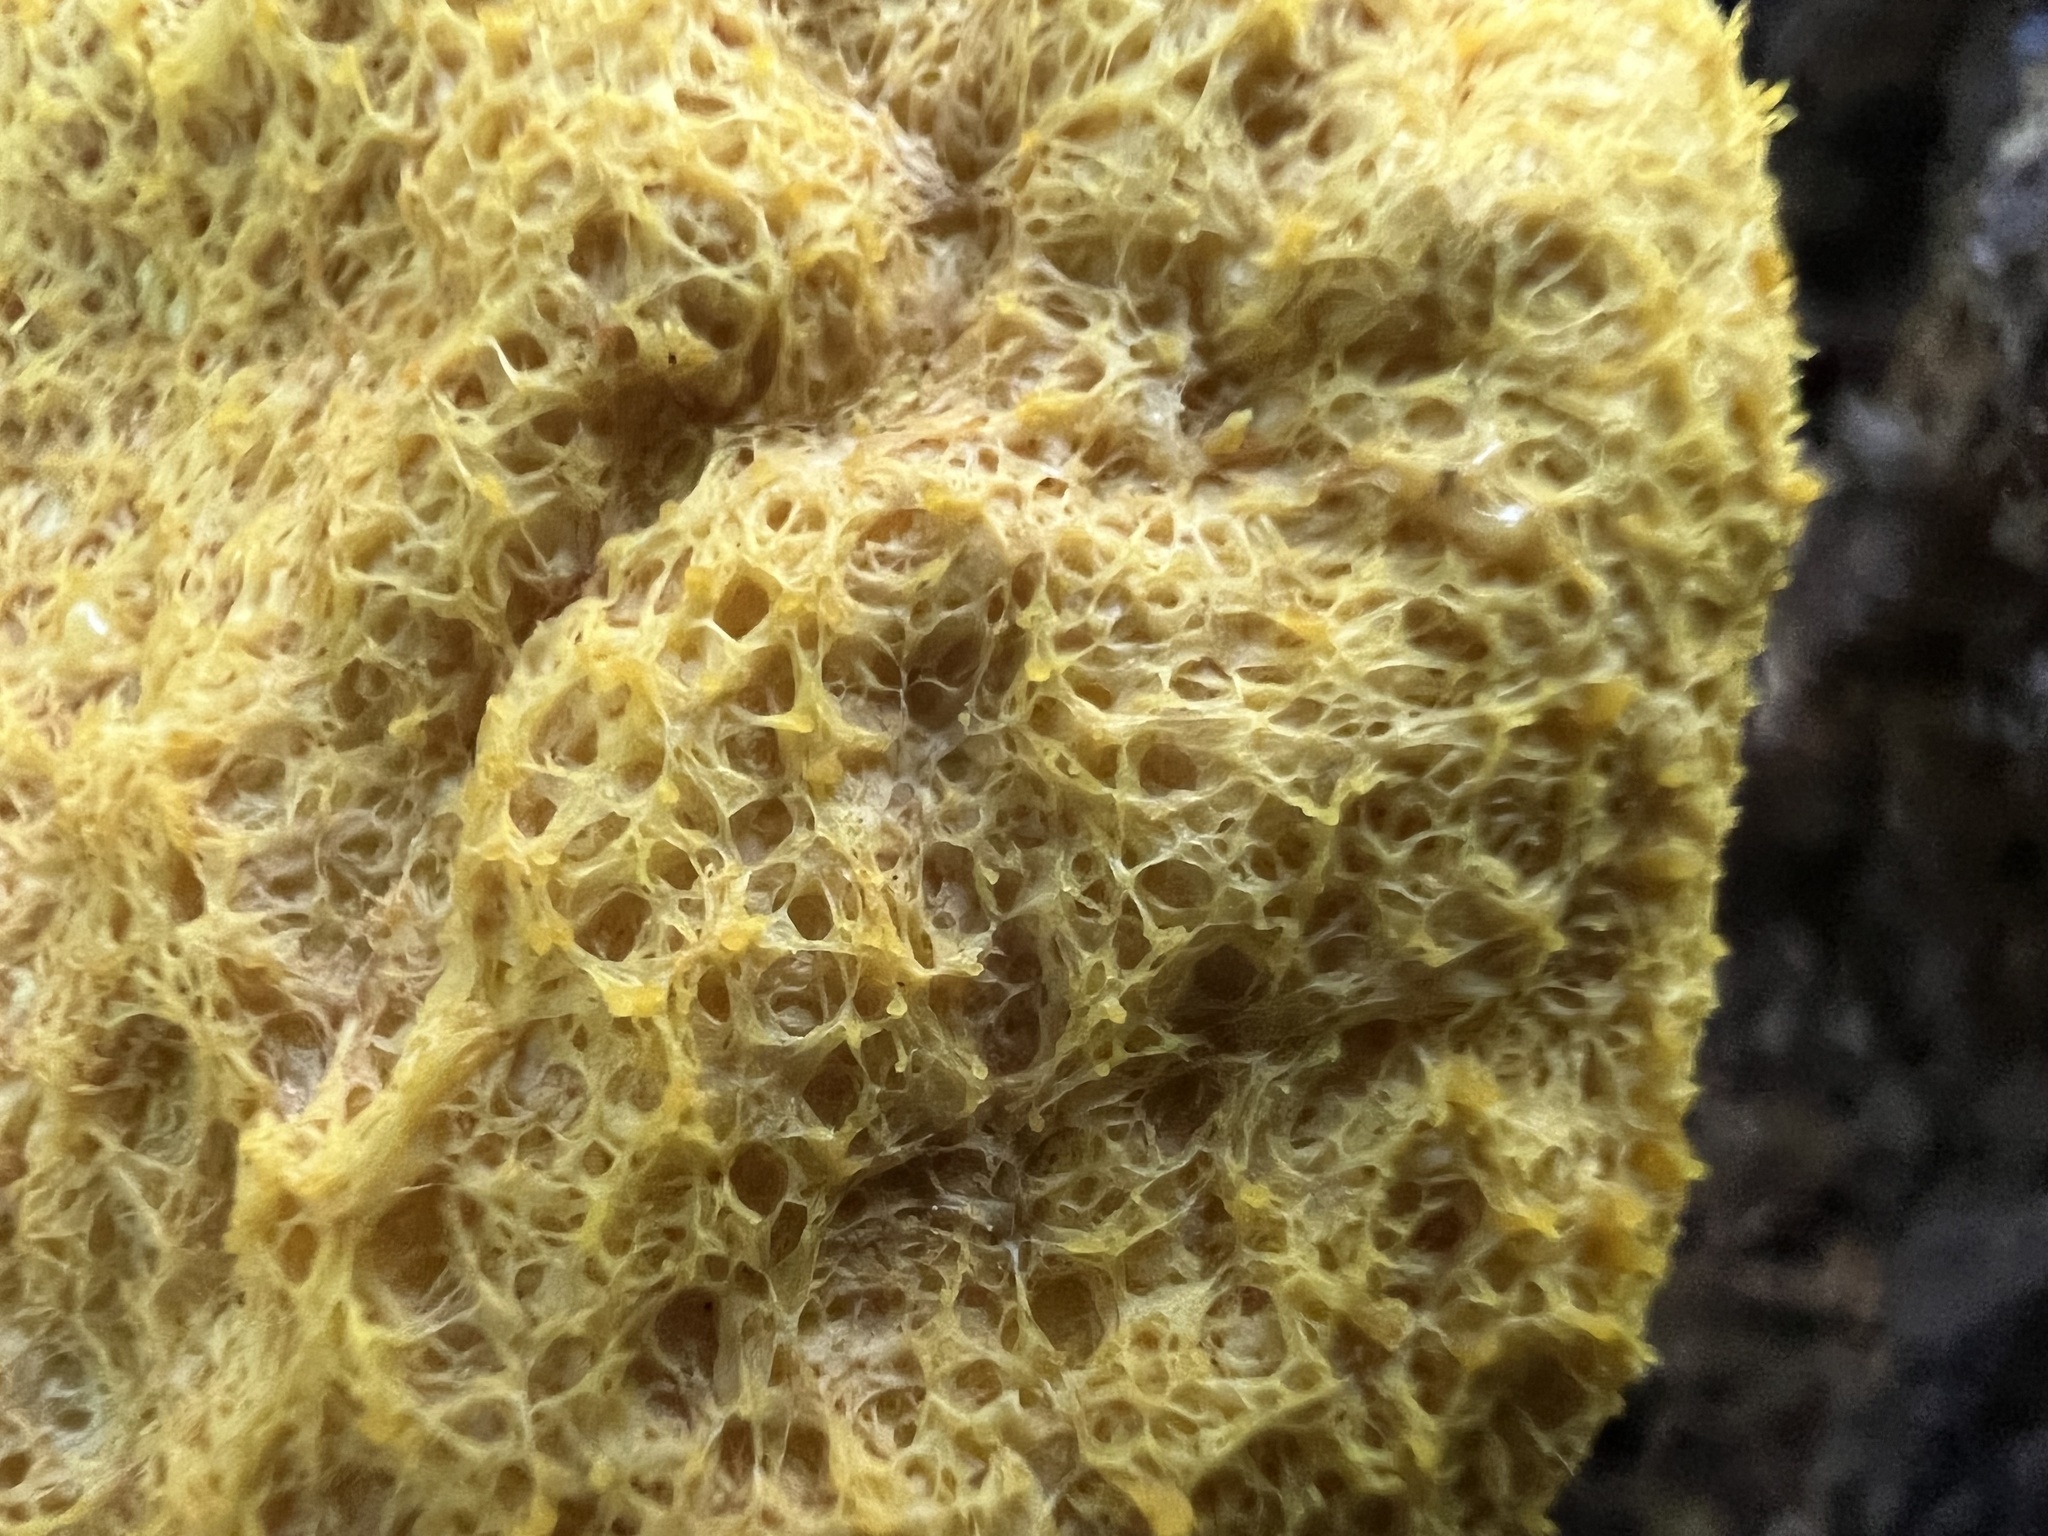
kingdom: Protozoa
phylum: Mycetozoa
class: Myxomycetes
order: Physarales
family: Physaraceae
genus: Fuligo
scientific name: Fuligo septica
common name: Dog vomit slime mold
